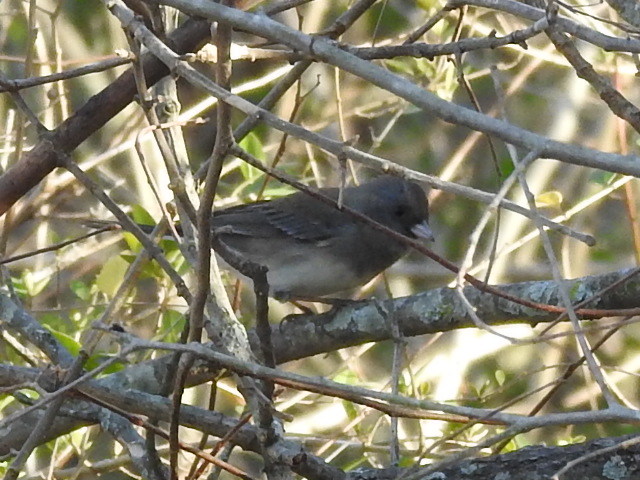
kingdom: Animalia
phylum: Chordata
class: Aves
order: Passeriformes
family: Passerellidae
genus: Junco
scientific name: Junco hyemalis
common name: Dark-eyed junco
